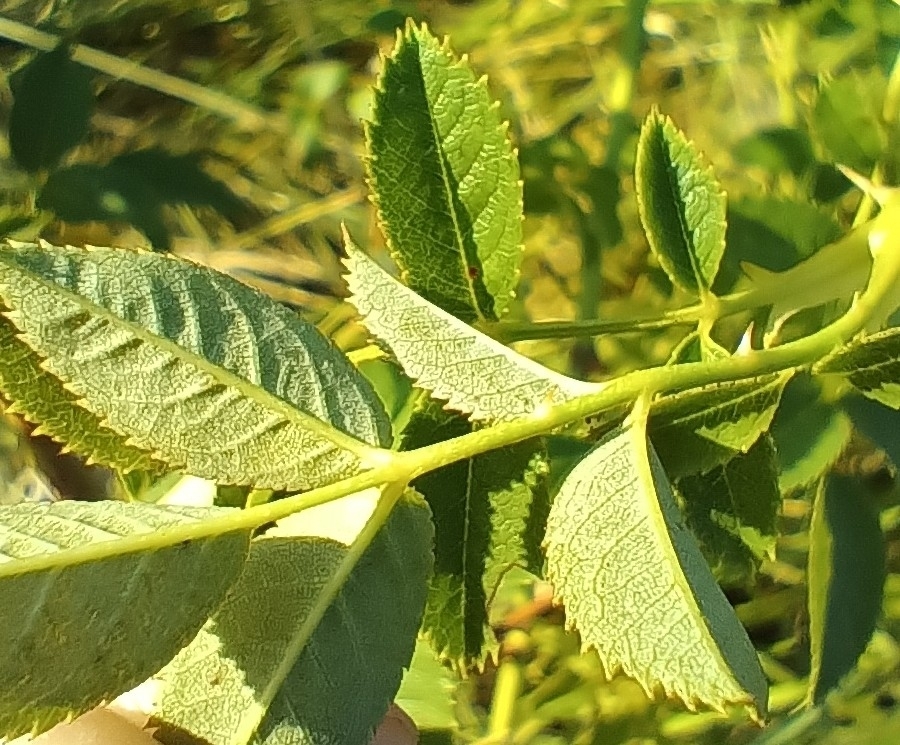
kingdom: Plantae
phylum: Tracheophyta
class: Magnoliopsida
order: Rosales
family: Rosaceae
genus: Rosa
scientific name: Rosa subcanina
